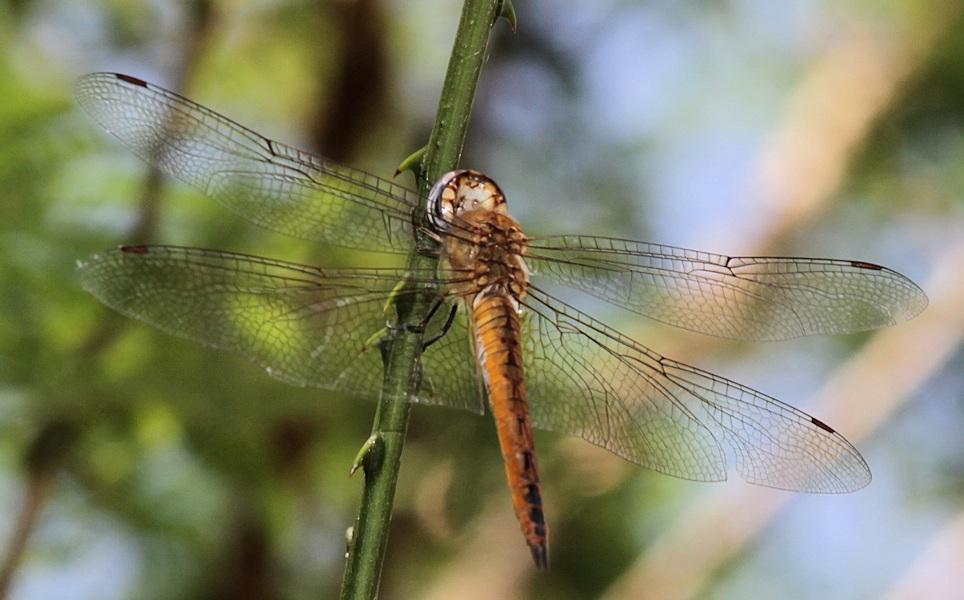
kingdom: Animalia
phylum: Arthropoda
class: Insecta
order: Odonata
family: Libellulidae
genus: Pantala
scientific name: Pantala flavescens
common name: Wandering glider
